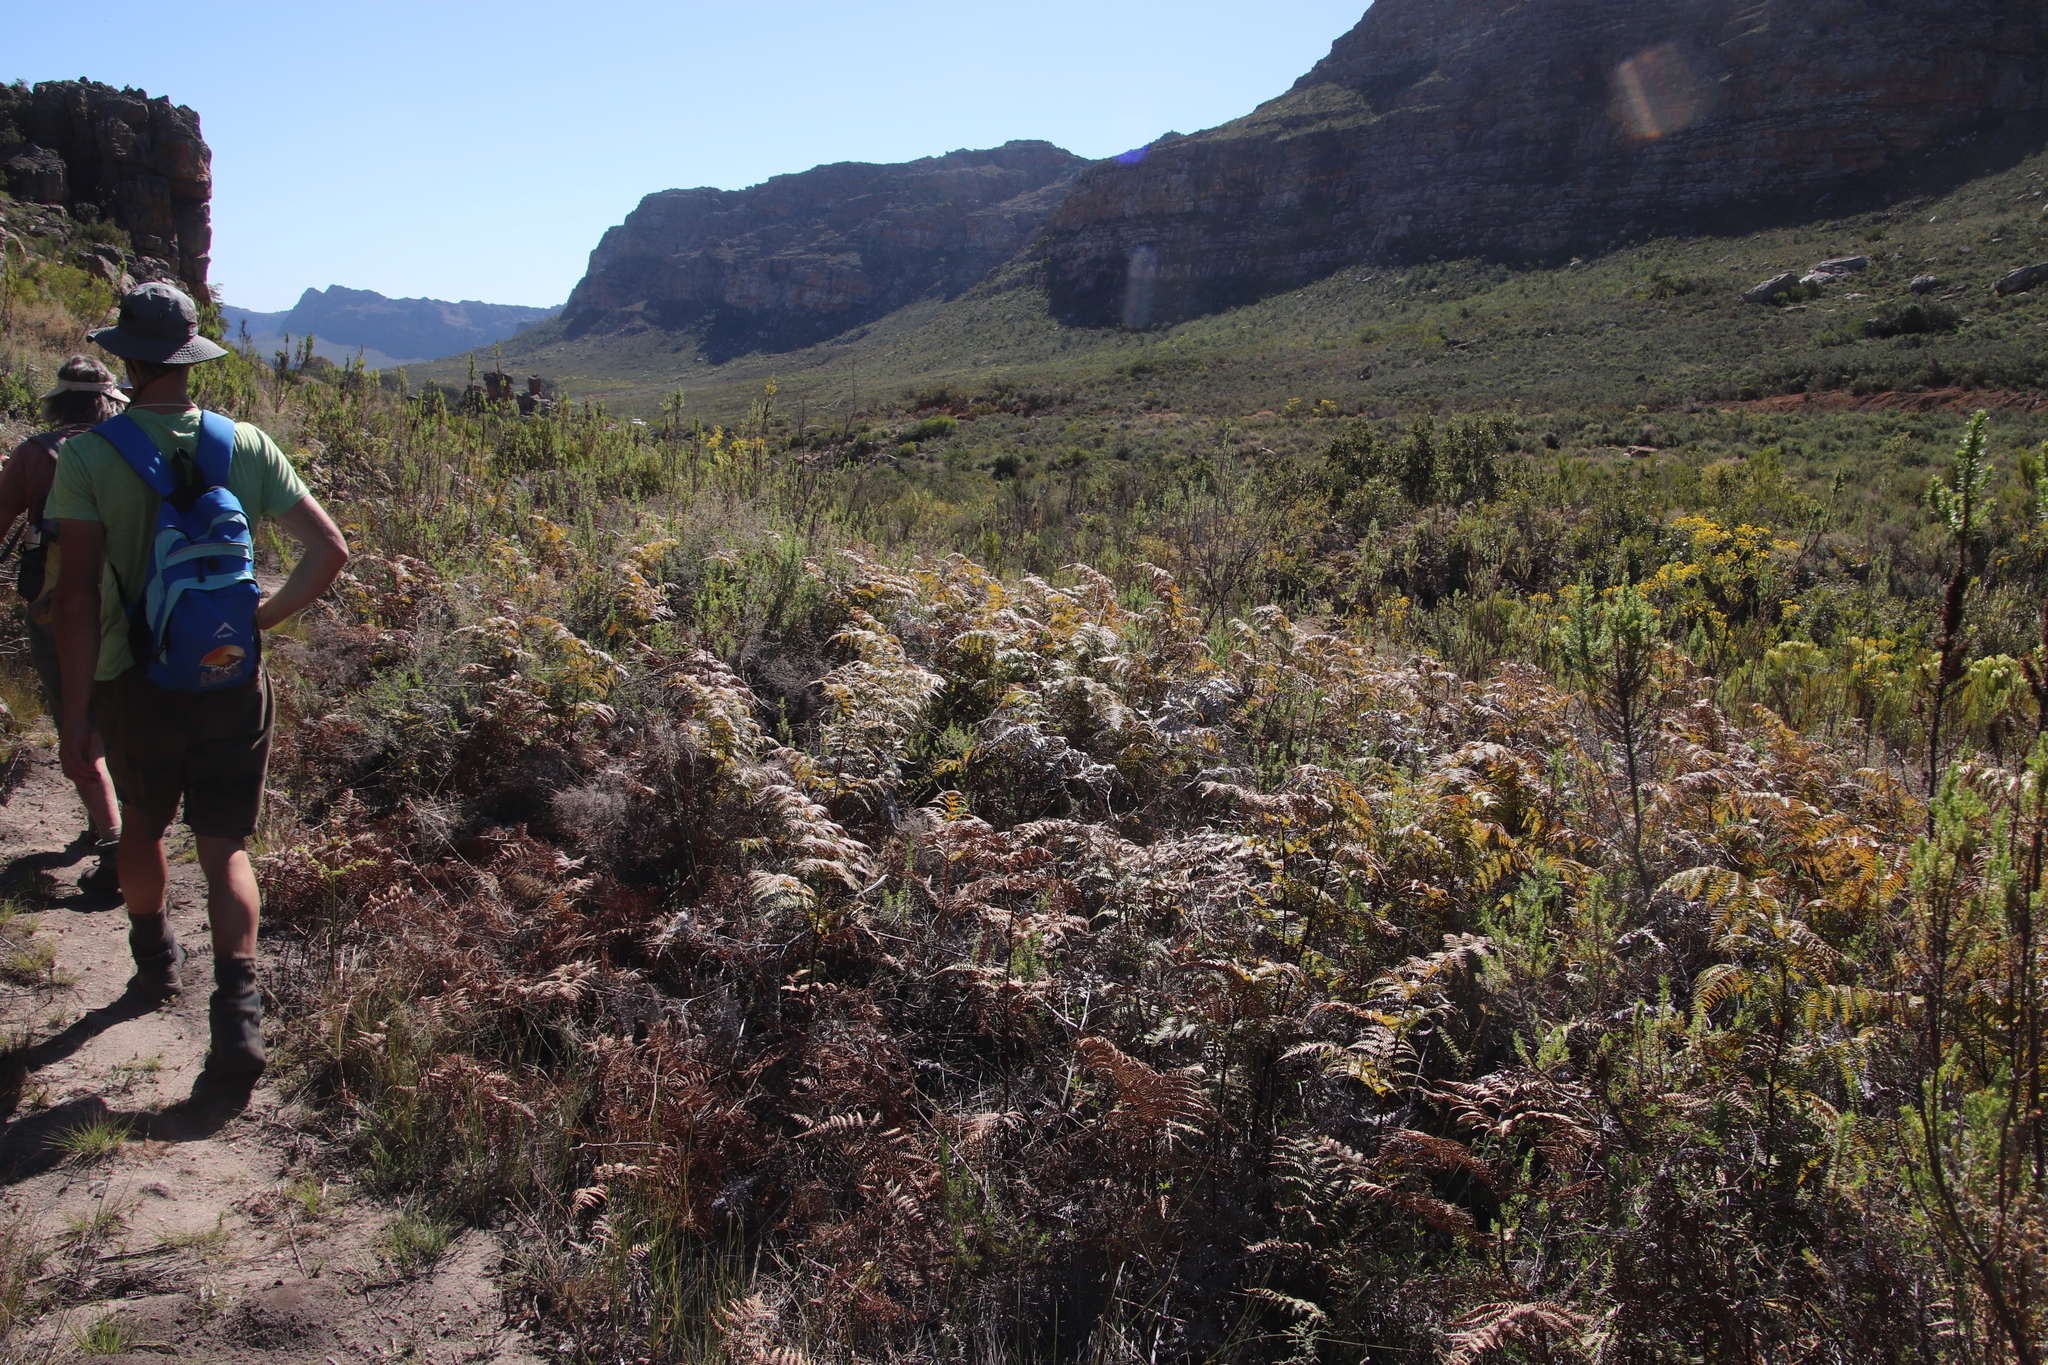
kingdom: Plantae
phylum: Tracheophyta
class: Polypodiopsida
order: Polypodiales
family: Dennstaedtiaceae
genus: Pteridium
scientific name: Pteridium aquilinum
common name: Bracken
